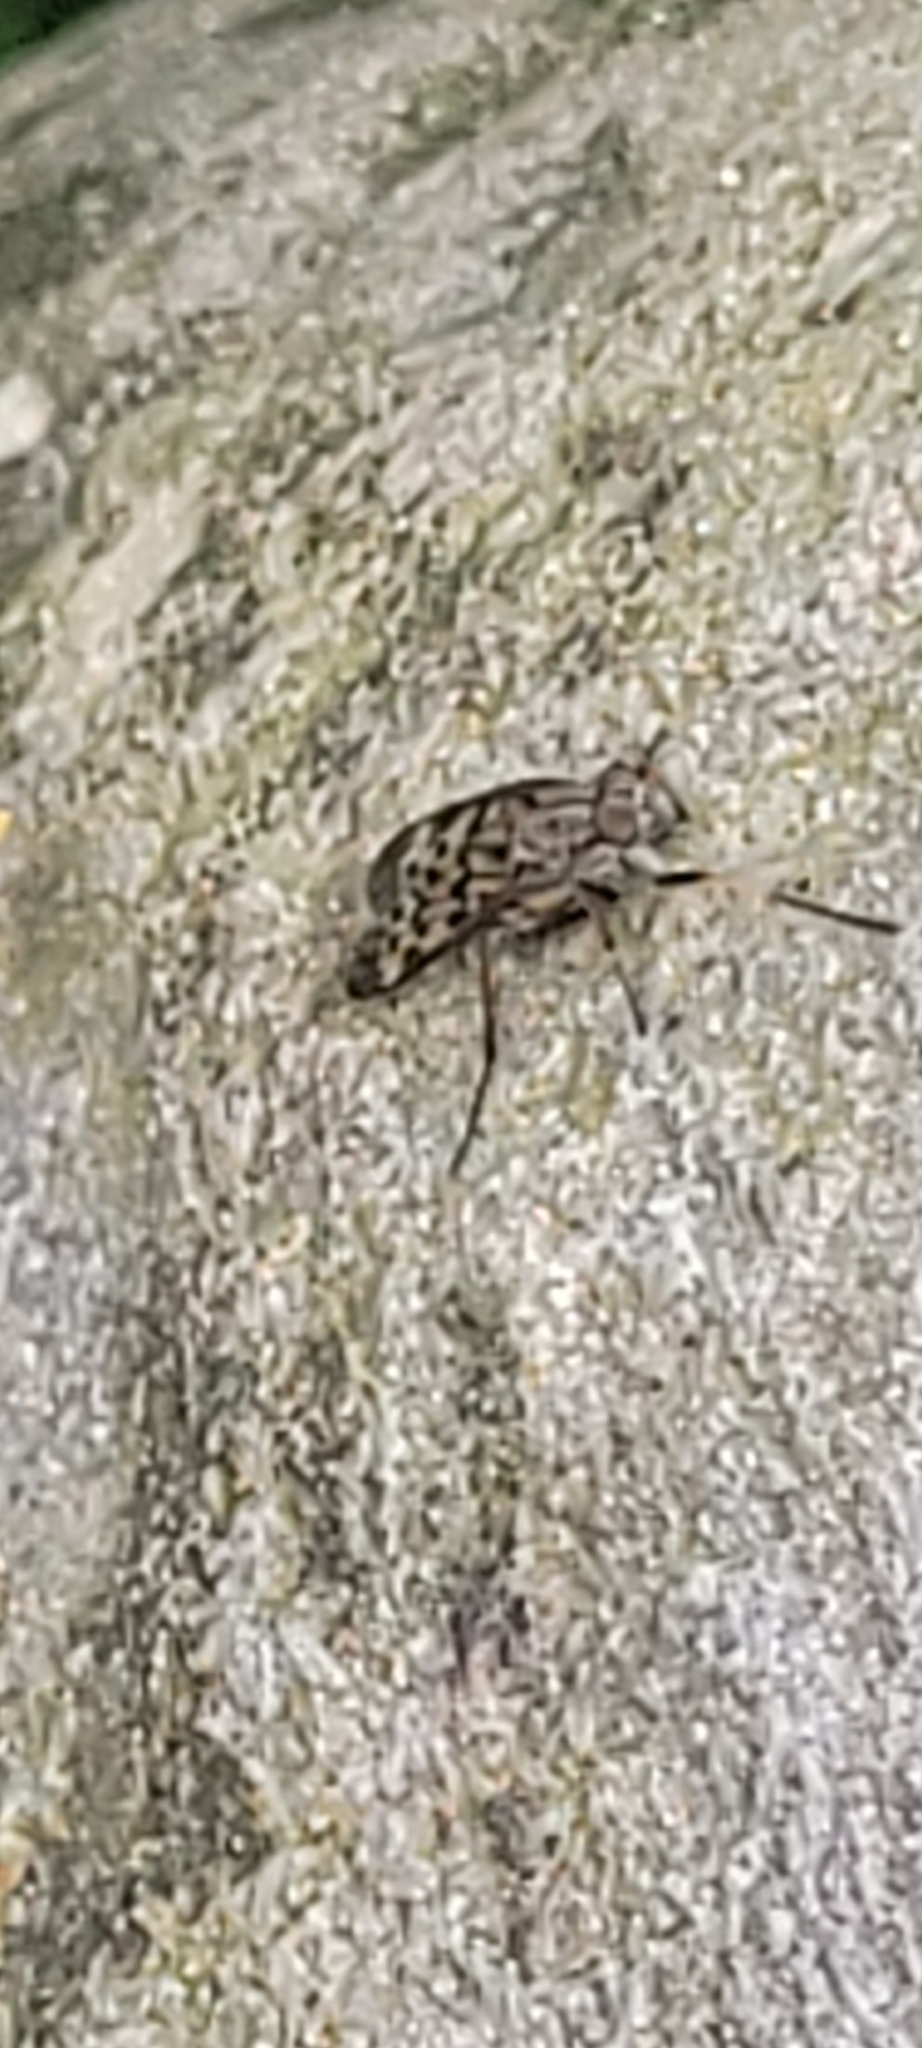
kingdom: Animalia
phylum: Arthropoda
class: Insecta
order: Diptera
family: Rhagionidae
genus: Rhagio
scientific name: Rhagio punctipennis
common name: Lesser variegated snipe fly
